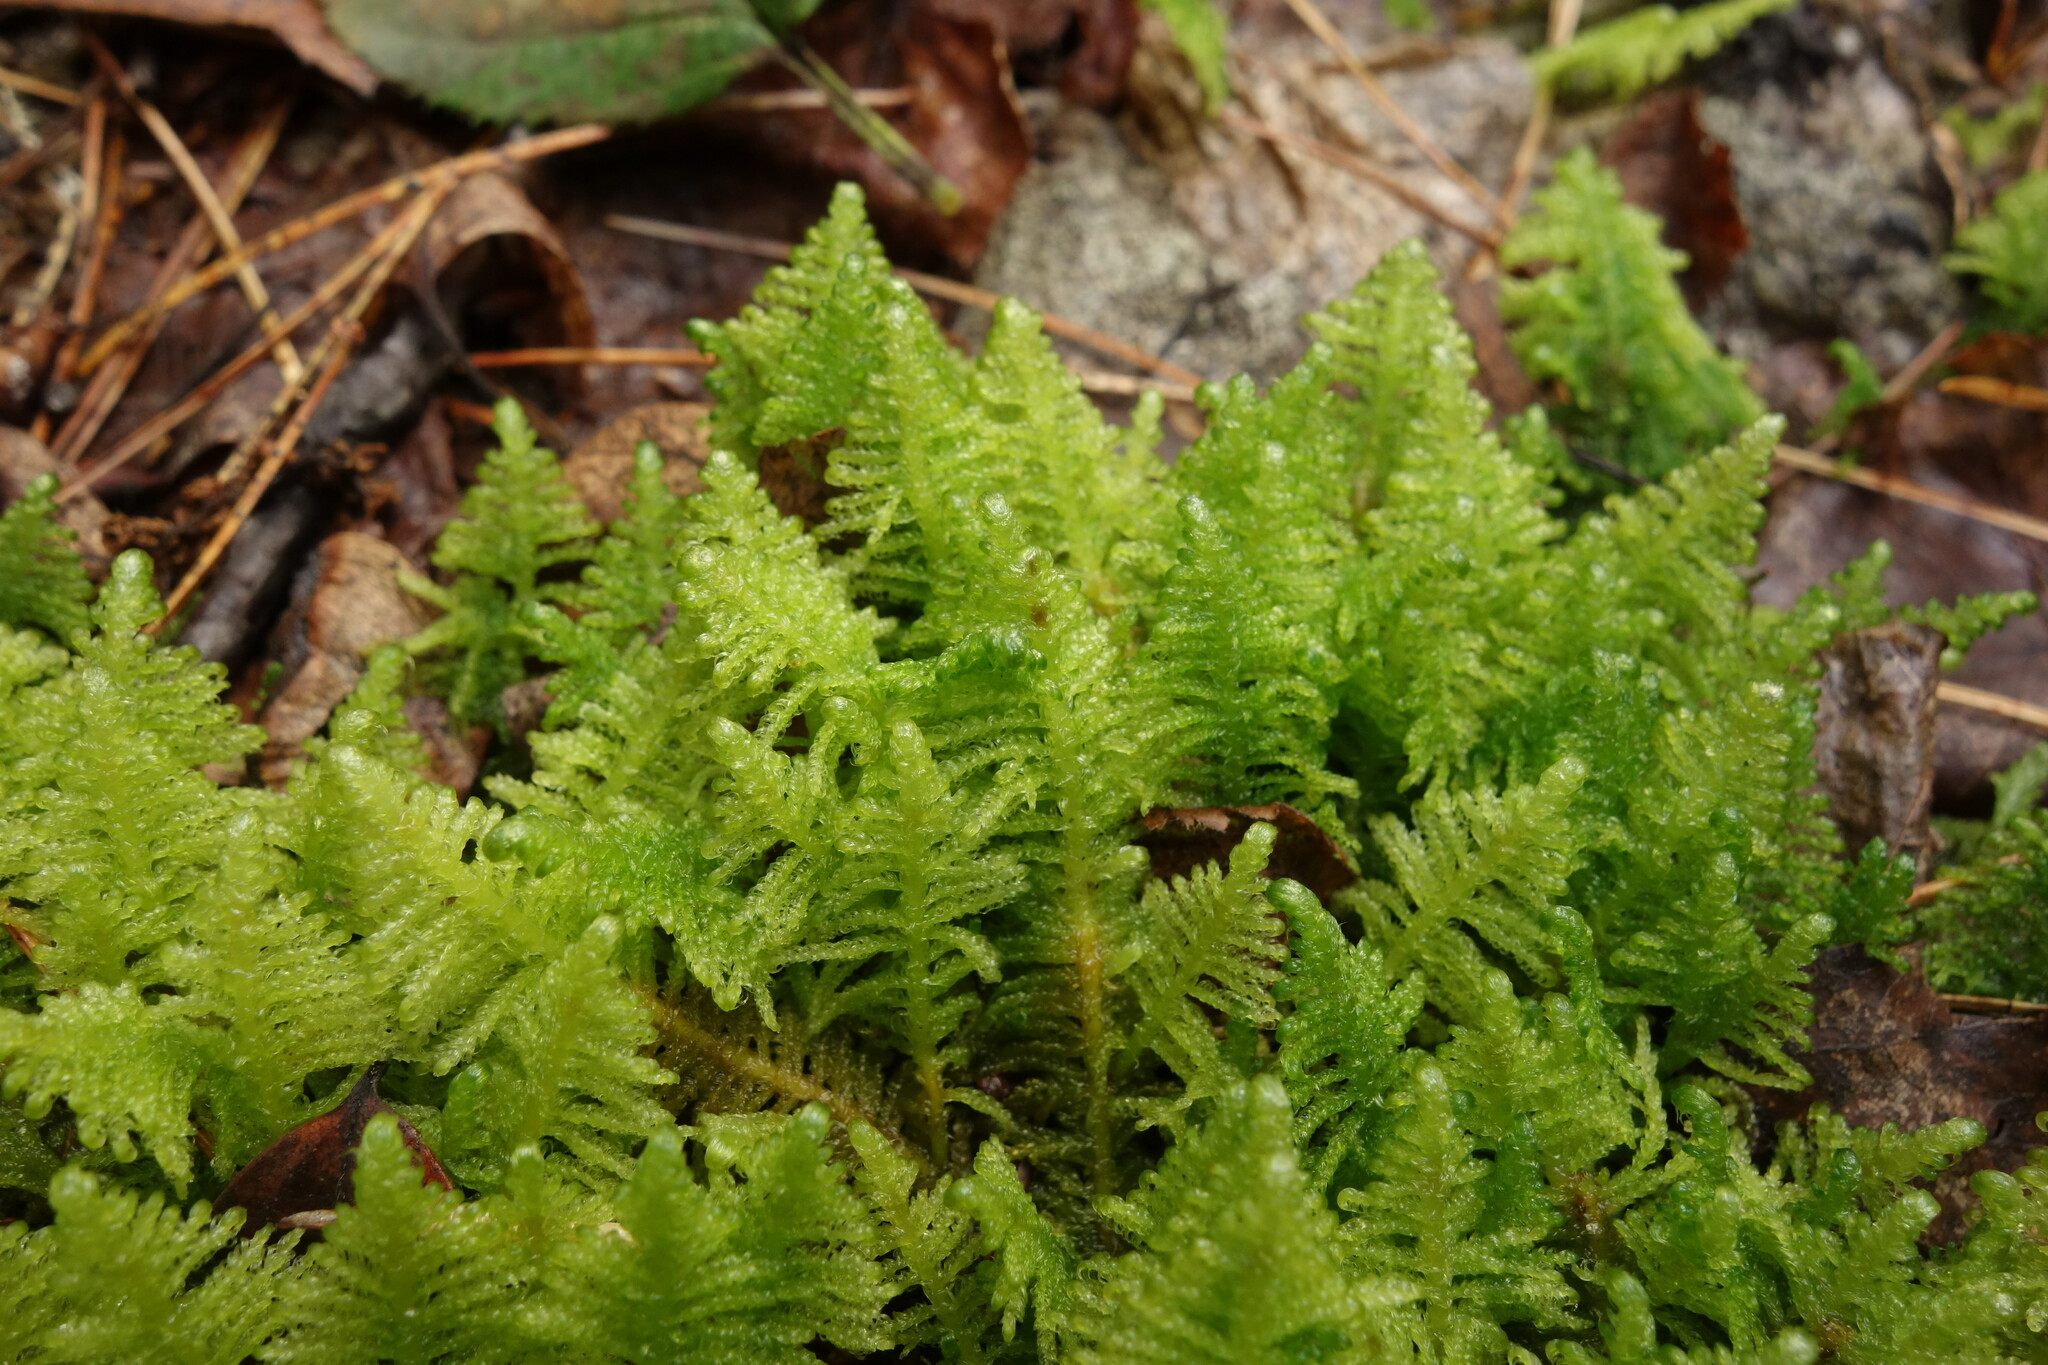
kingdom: Plantae
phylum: Bryophyta
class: Bryopsida
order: Hypnales
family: Pylaisiaceae
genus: Ptilium
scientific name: Ptilium crista-castrensis
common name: Knight's plume moss
